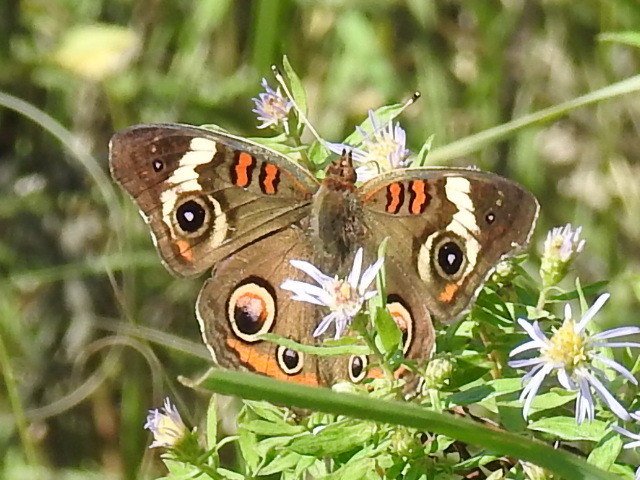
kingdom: Animalia
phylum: Arthropoda
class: Insecta
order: Lepidoptera
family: Nymphalidae
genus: Junonia
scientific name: Junonia coenia
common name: Common buckeye
